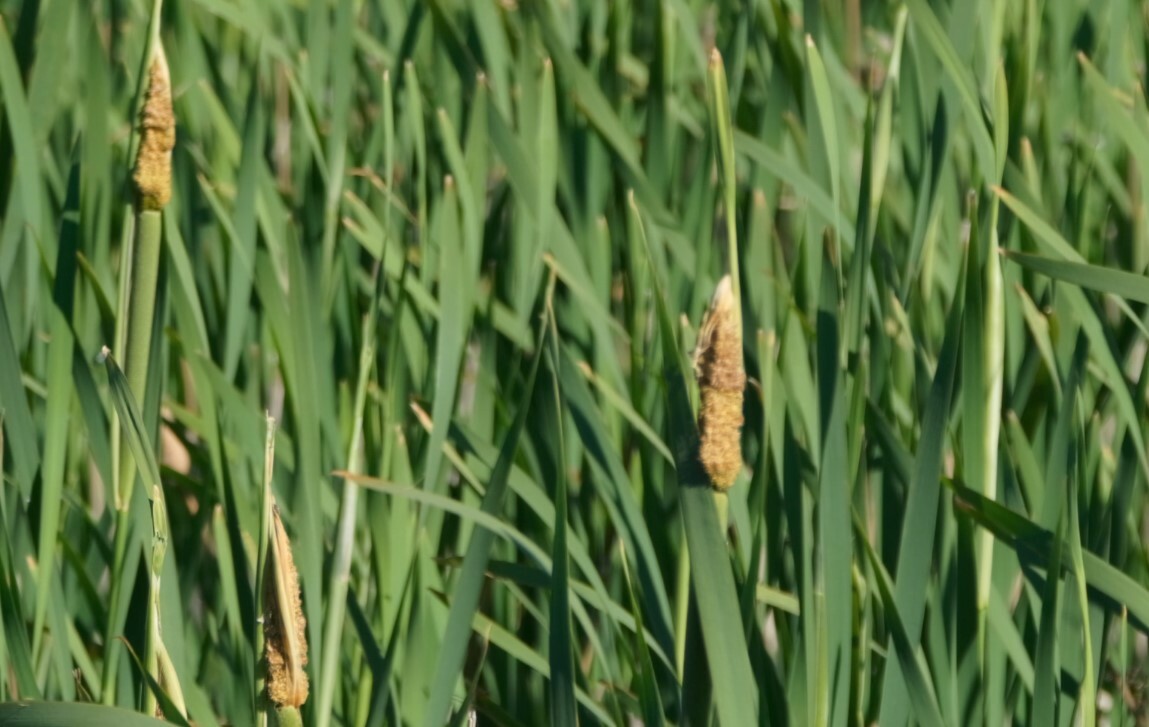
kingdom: Plantae
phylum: Tracheophyta
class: Liliopsida
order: Poales
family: Typhaceae
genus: Typha
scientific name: Typha latifolia
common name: Broadleaf cattail
